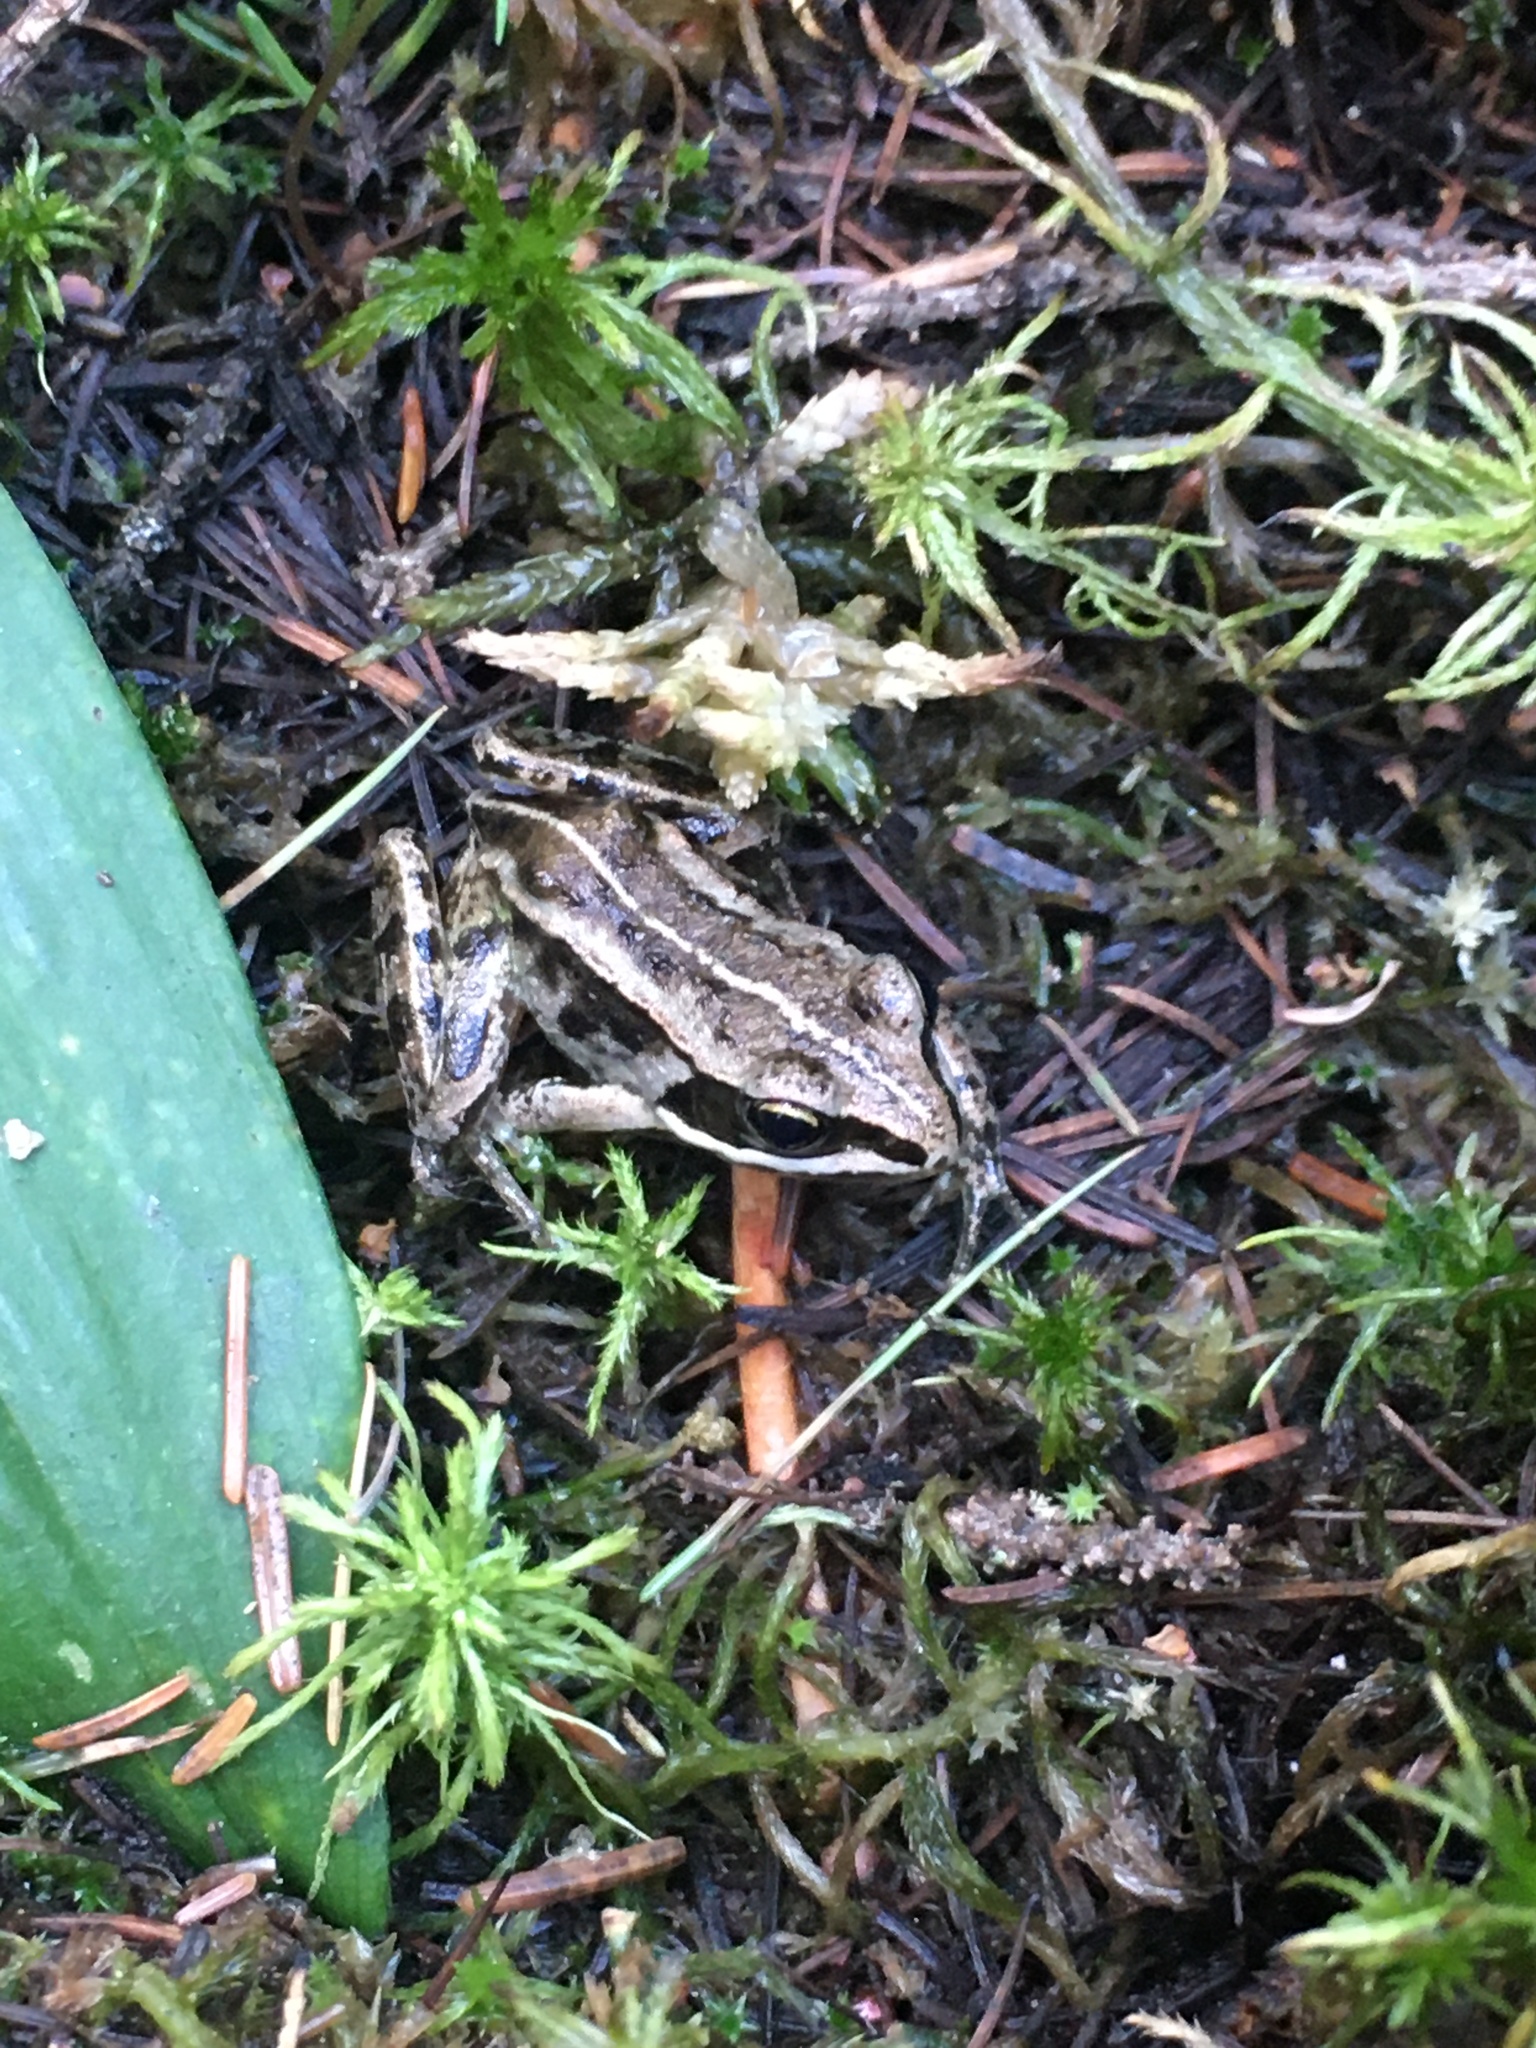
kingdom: Animalia
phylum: Chordata
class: Amphibia
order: Anura
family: Ranidae
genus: Lithobates
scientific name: Lithobates sylvaticus
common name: Wood frog
